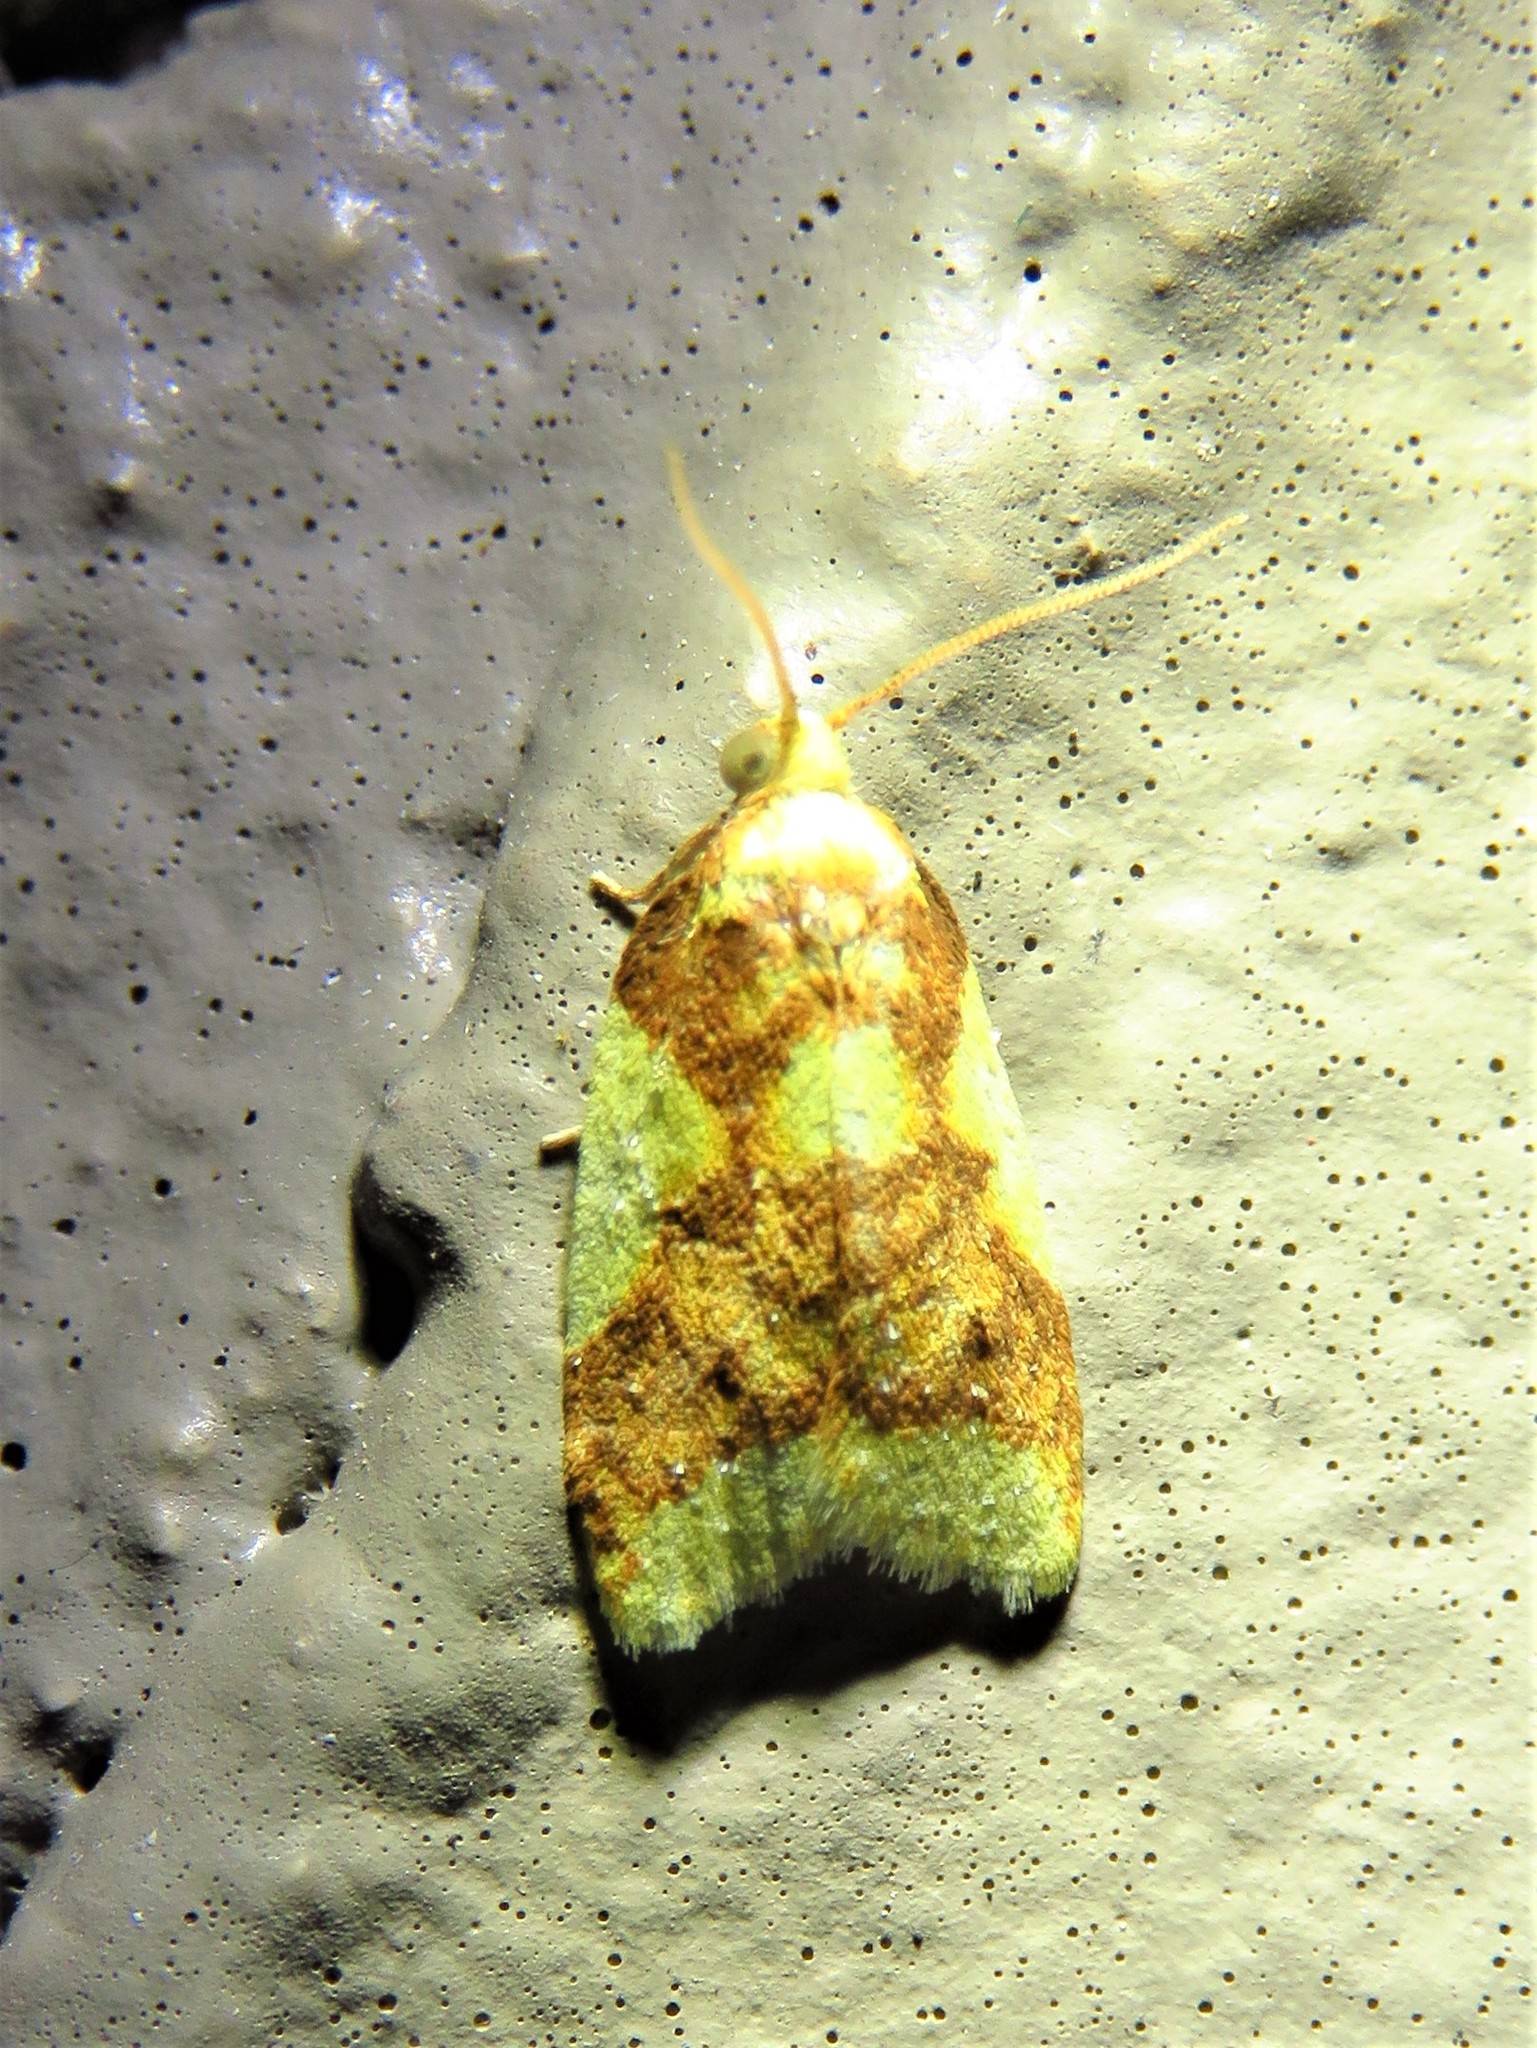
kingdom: Animalia
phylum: Arthropoda
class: Insecta
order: Lepidoptera
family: Tortricidae
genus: Sparganothis
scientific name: Sparganothis pulcherrimana
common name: Beautiful sparganothis
